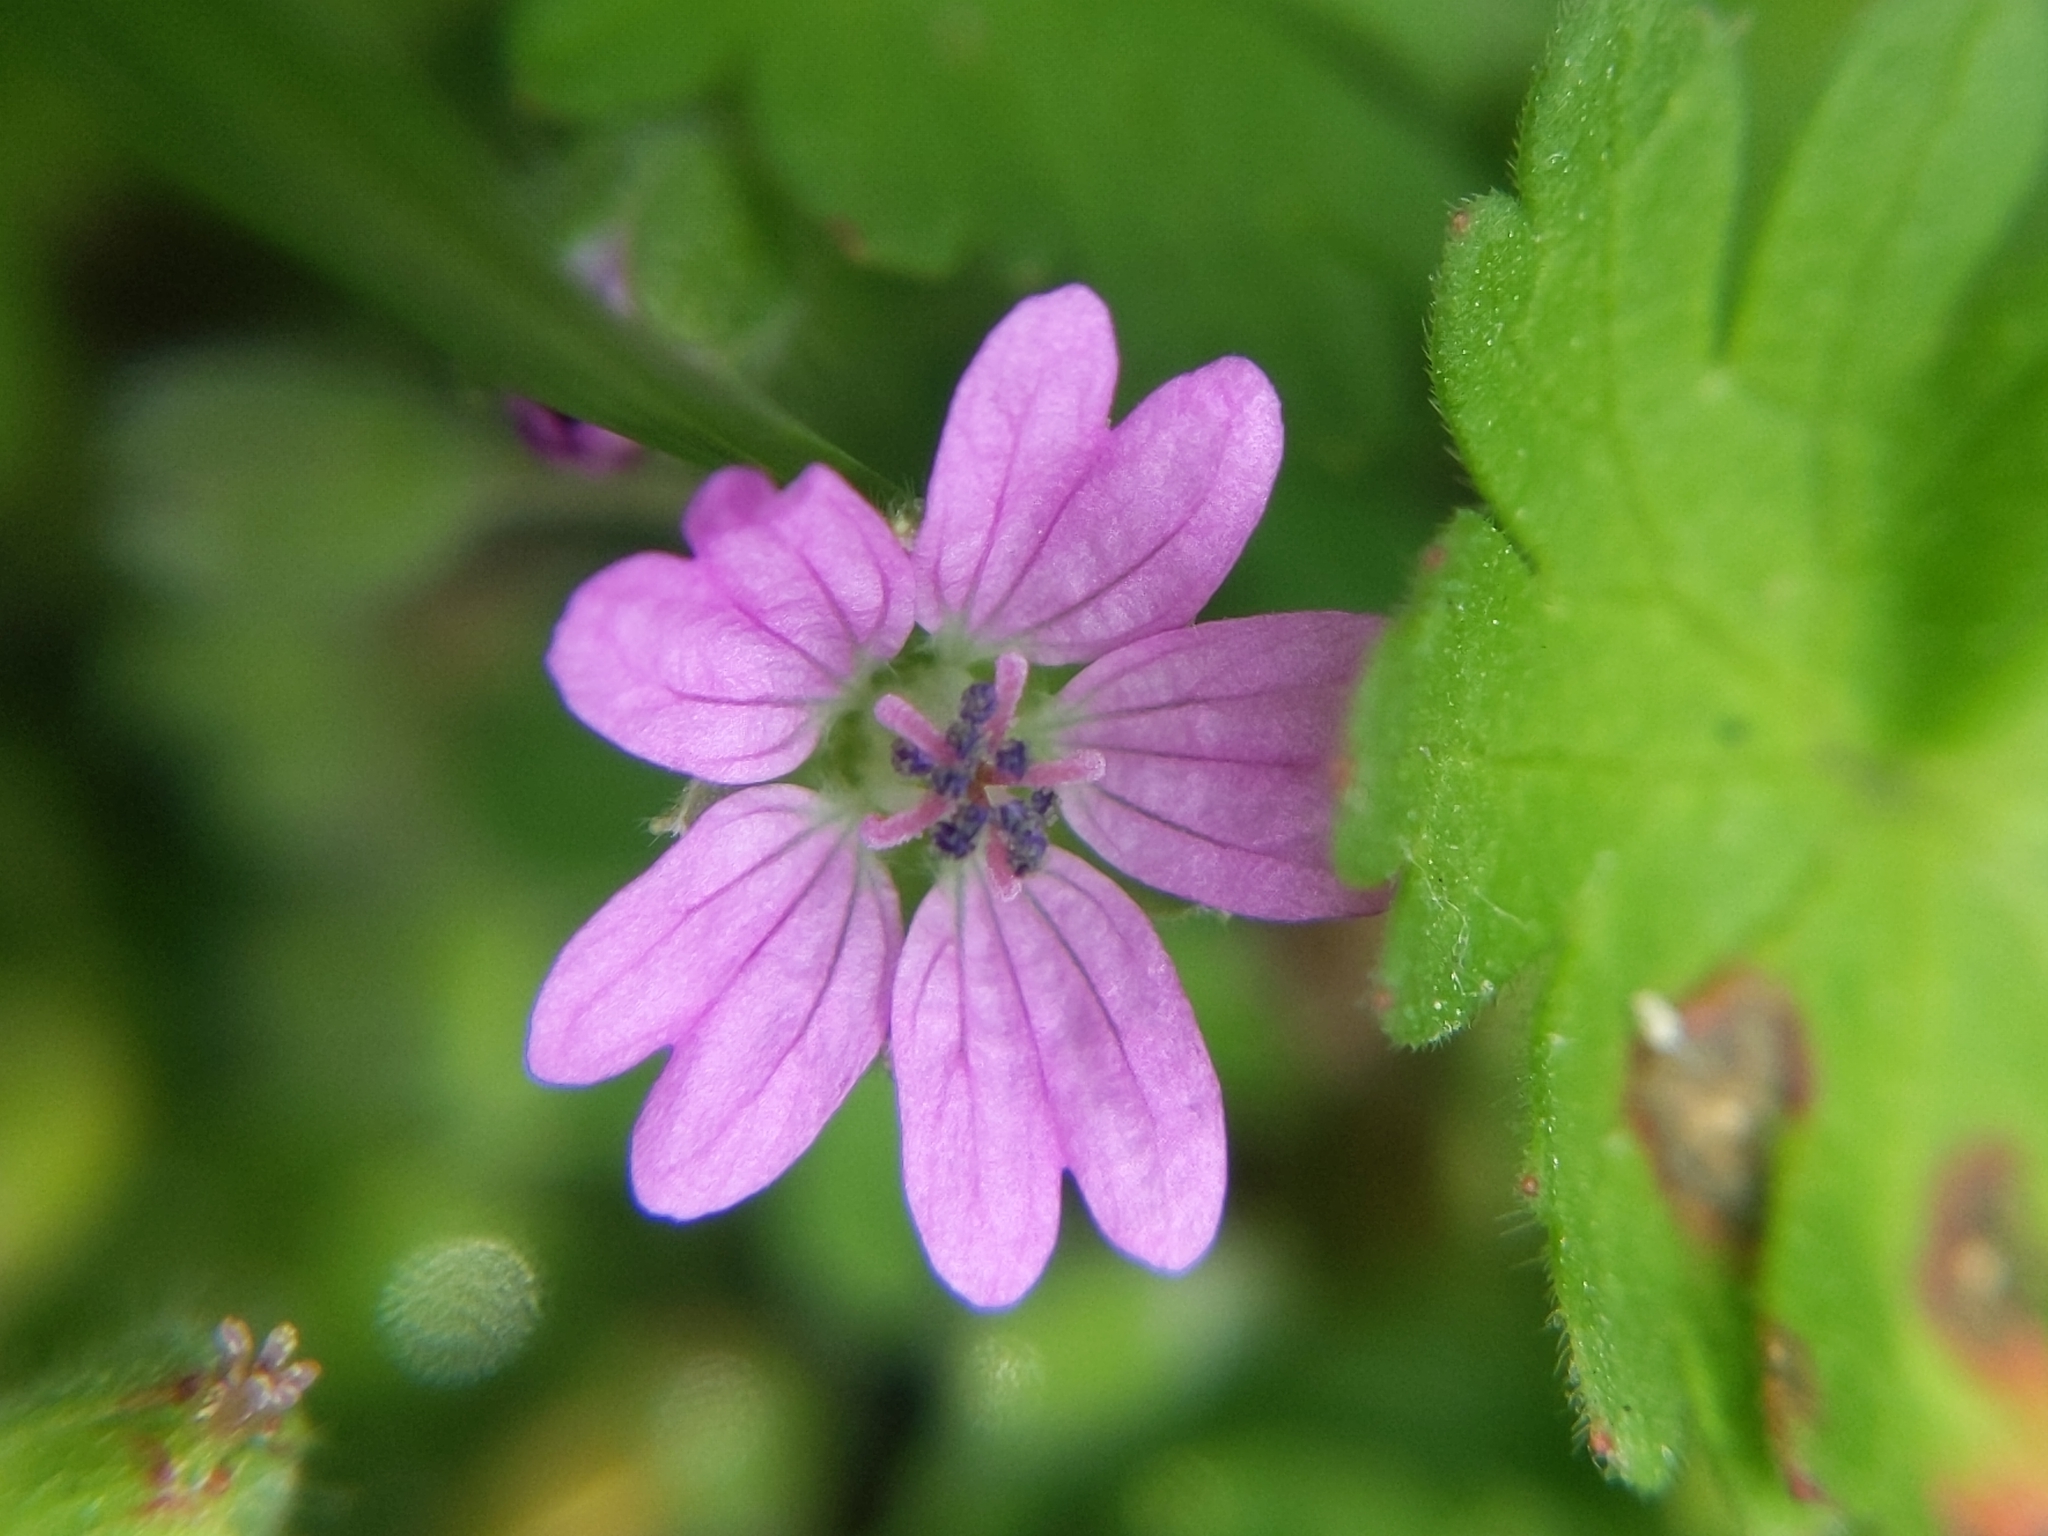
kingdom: Plantae
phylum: Tracheophyta
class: Magnoliopsida
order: Geraniales
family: Geraniaceae
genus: Geranium
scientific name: Geranium molle
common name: Dove's-foot crane's-bill
